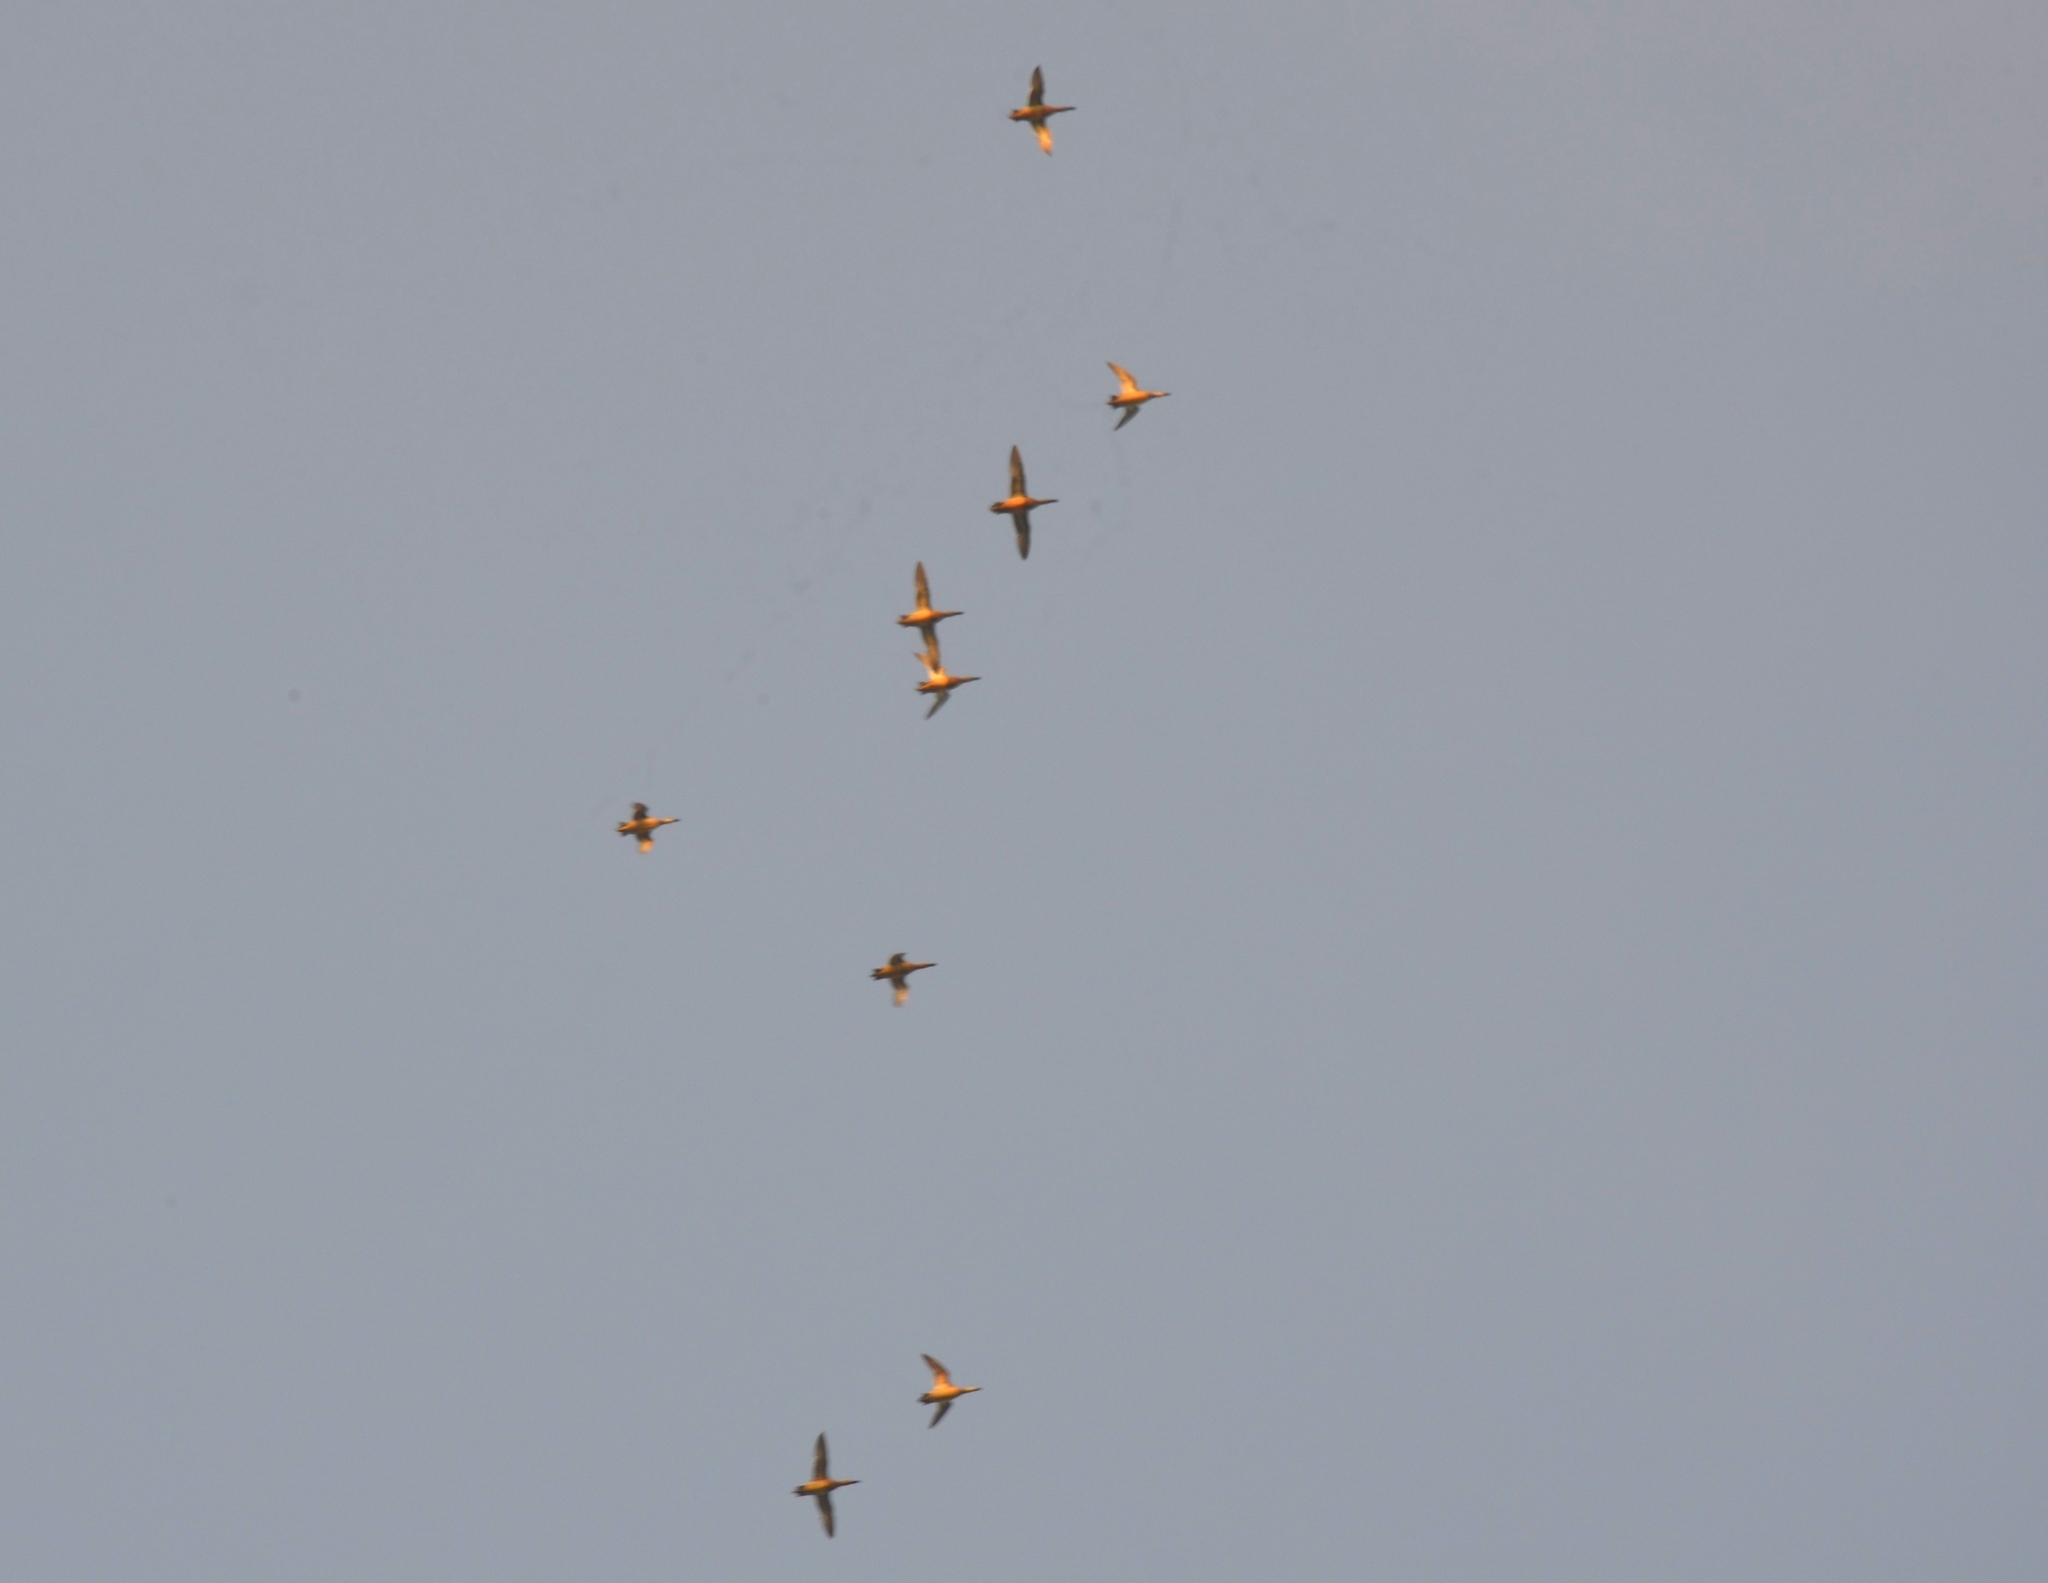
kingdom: Animalia
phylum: Chordata
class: Aves
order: Anseriformes
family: Anatidae
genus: Spatula
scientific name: Spatula querquedula
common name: Garganey
